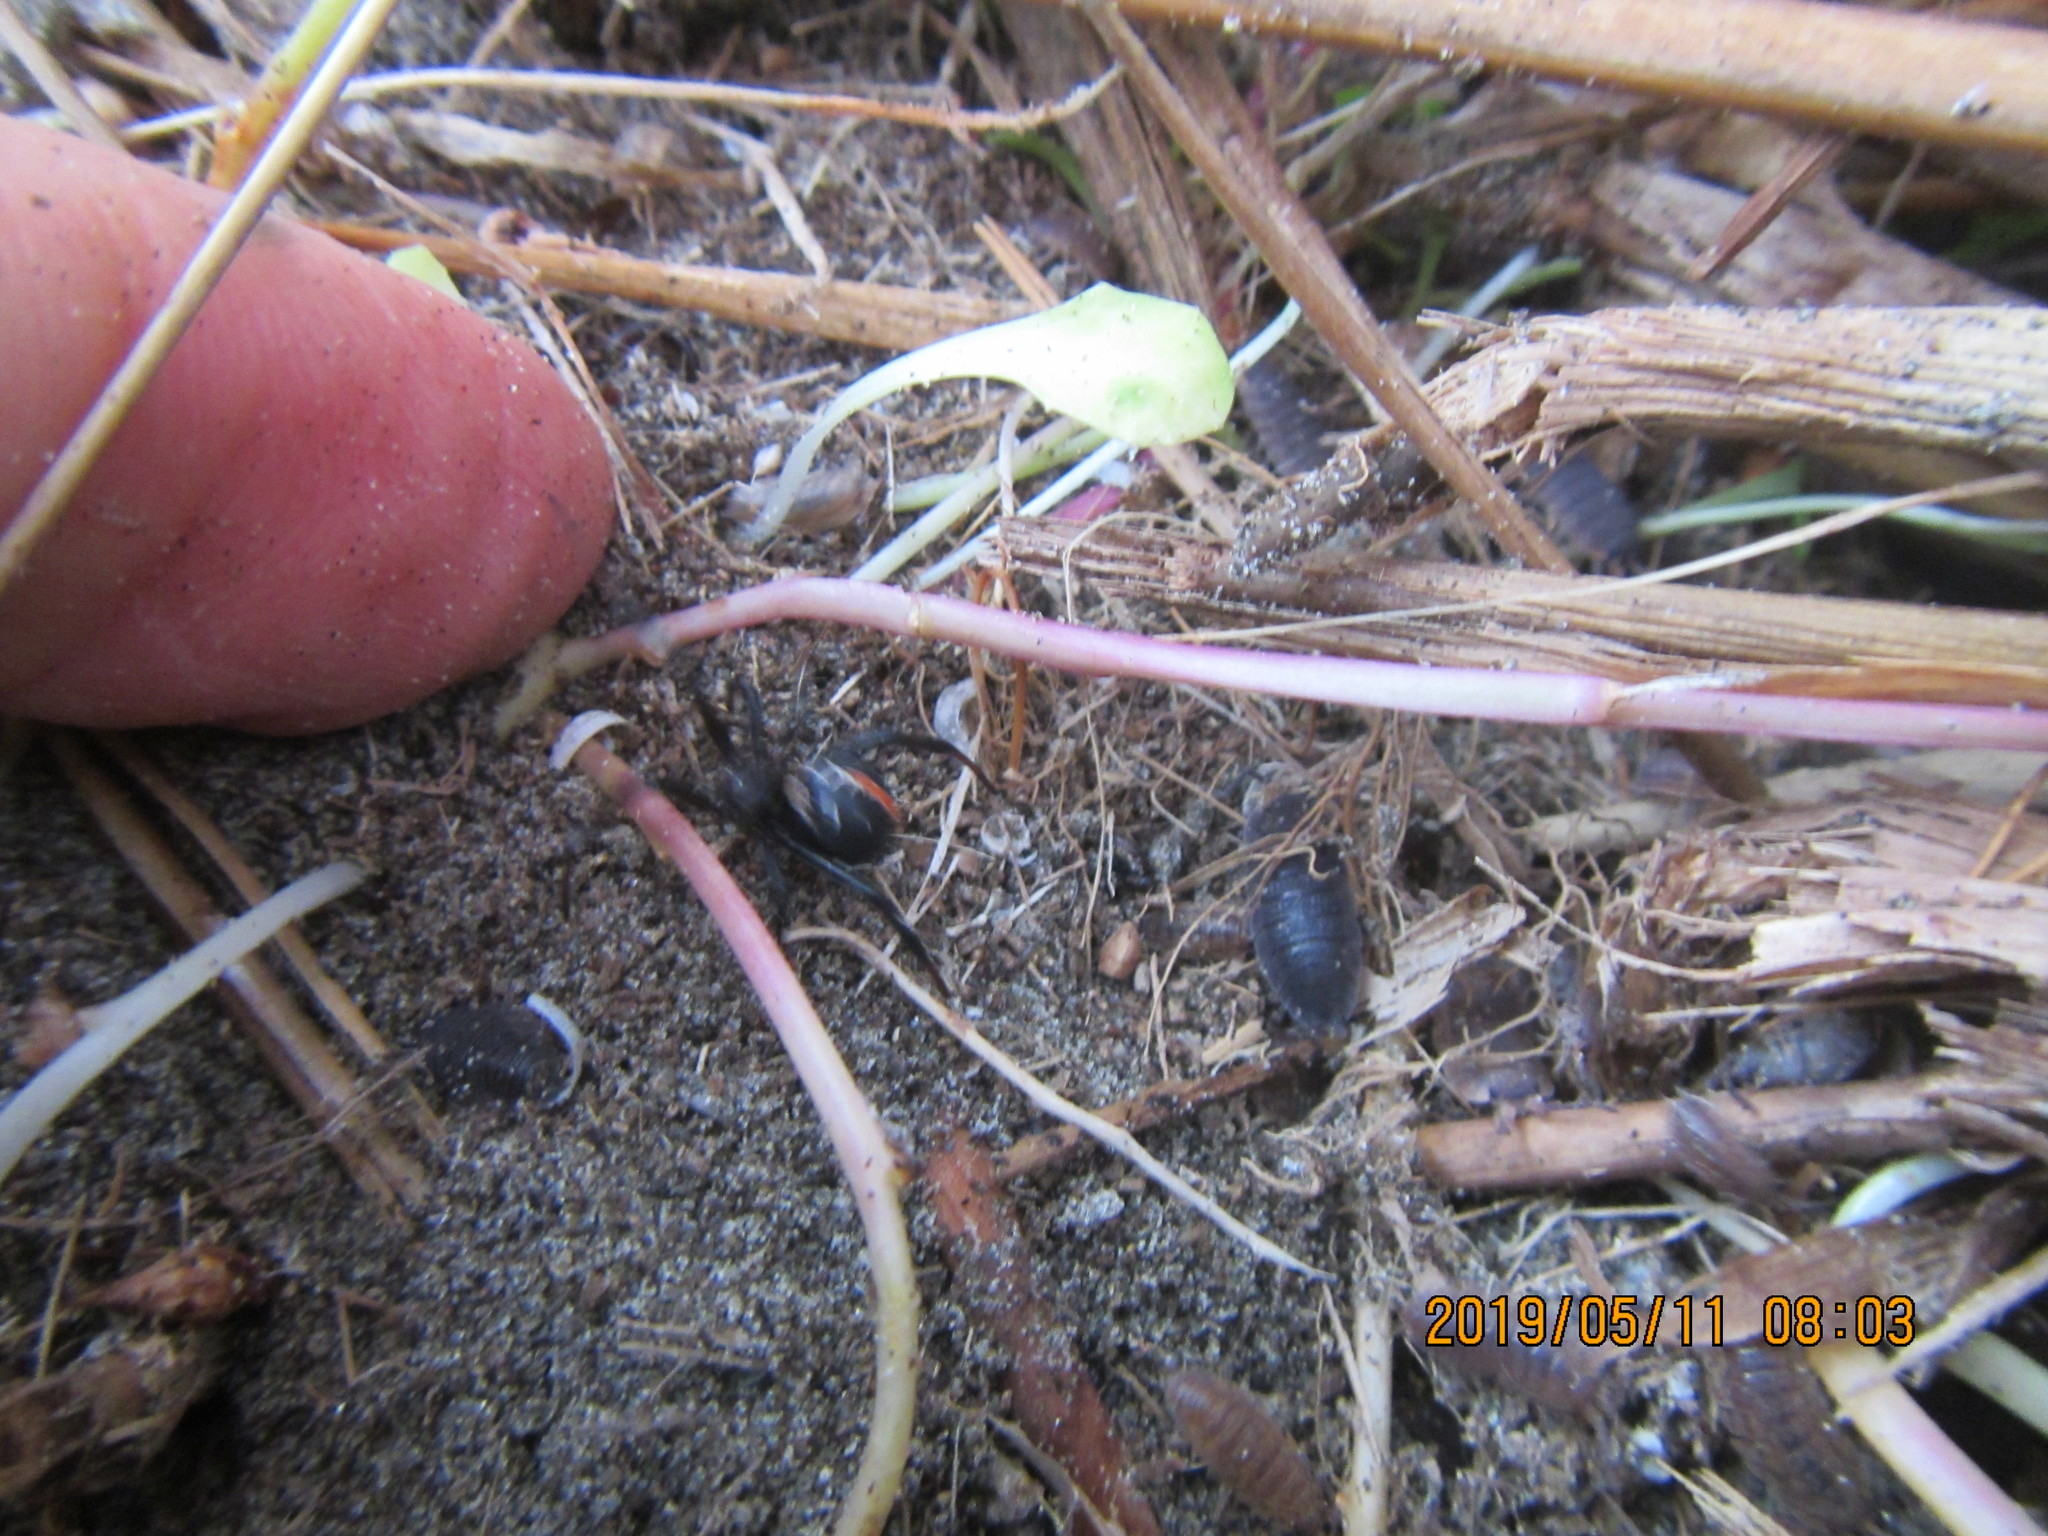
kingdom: Animalia
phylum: Arthropoda
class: Malacostraca
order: Isopoda
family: Porcellionidae
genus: Porcellio
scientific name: Porcellio scaber
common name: Common rough woodlouse
